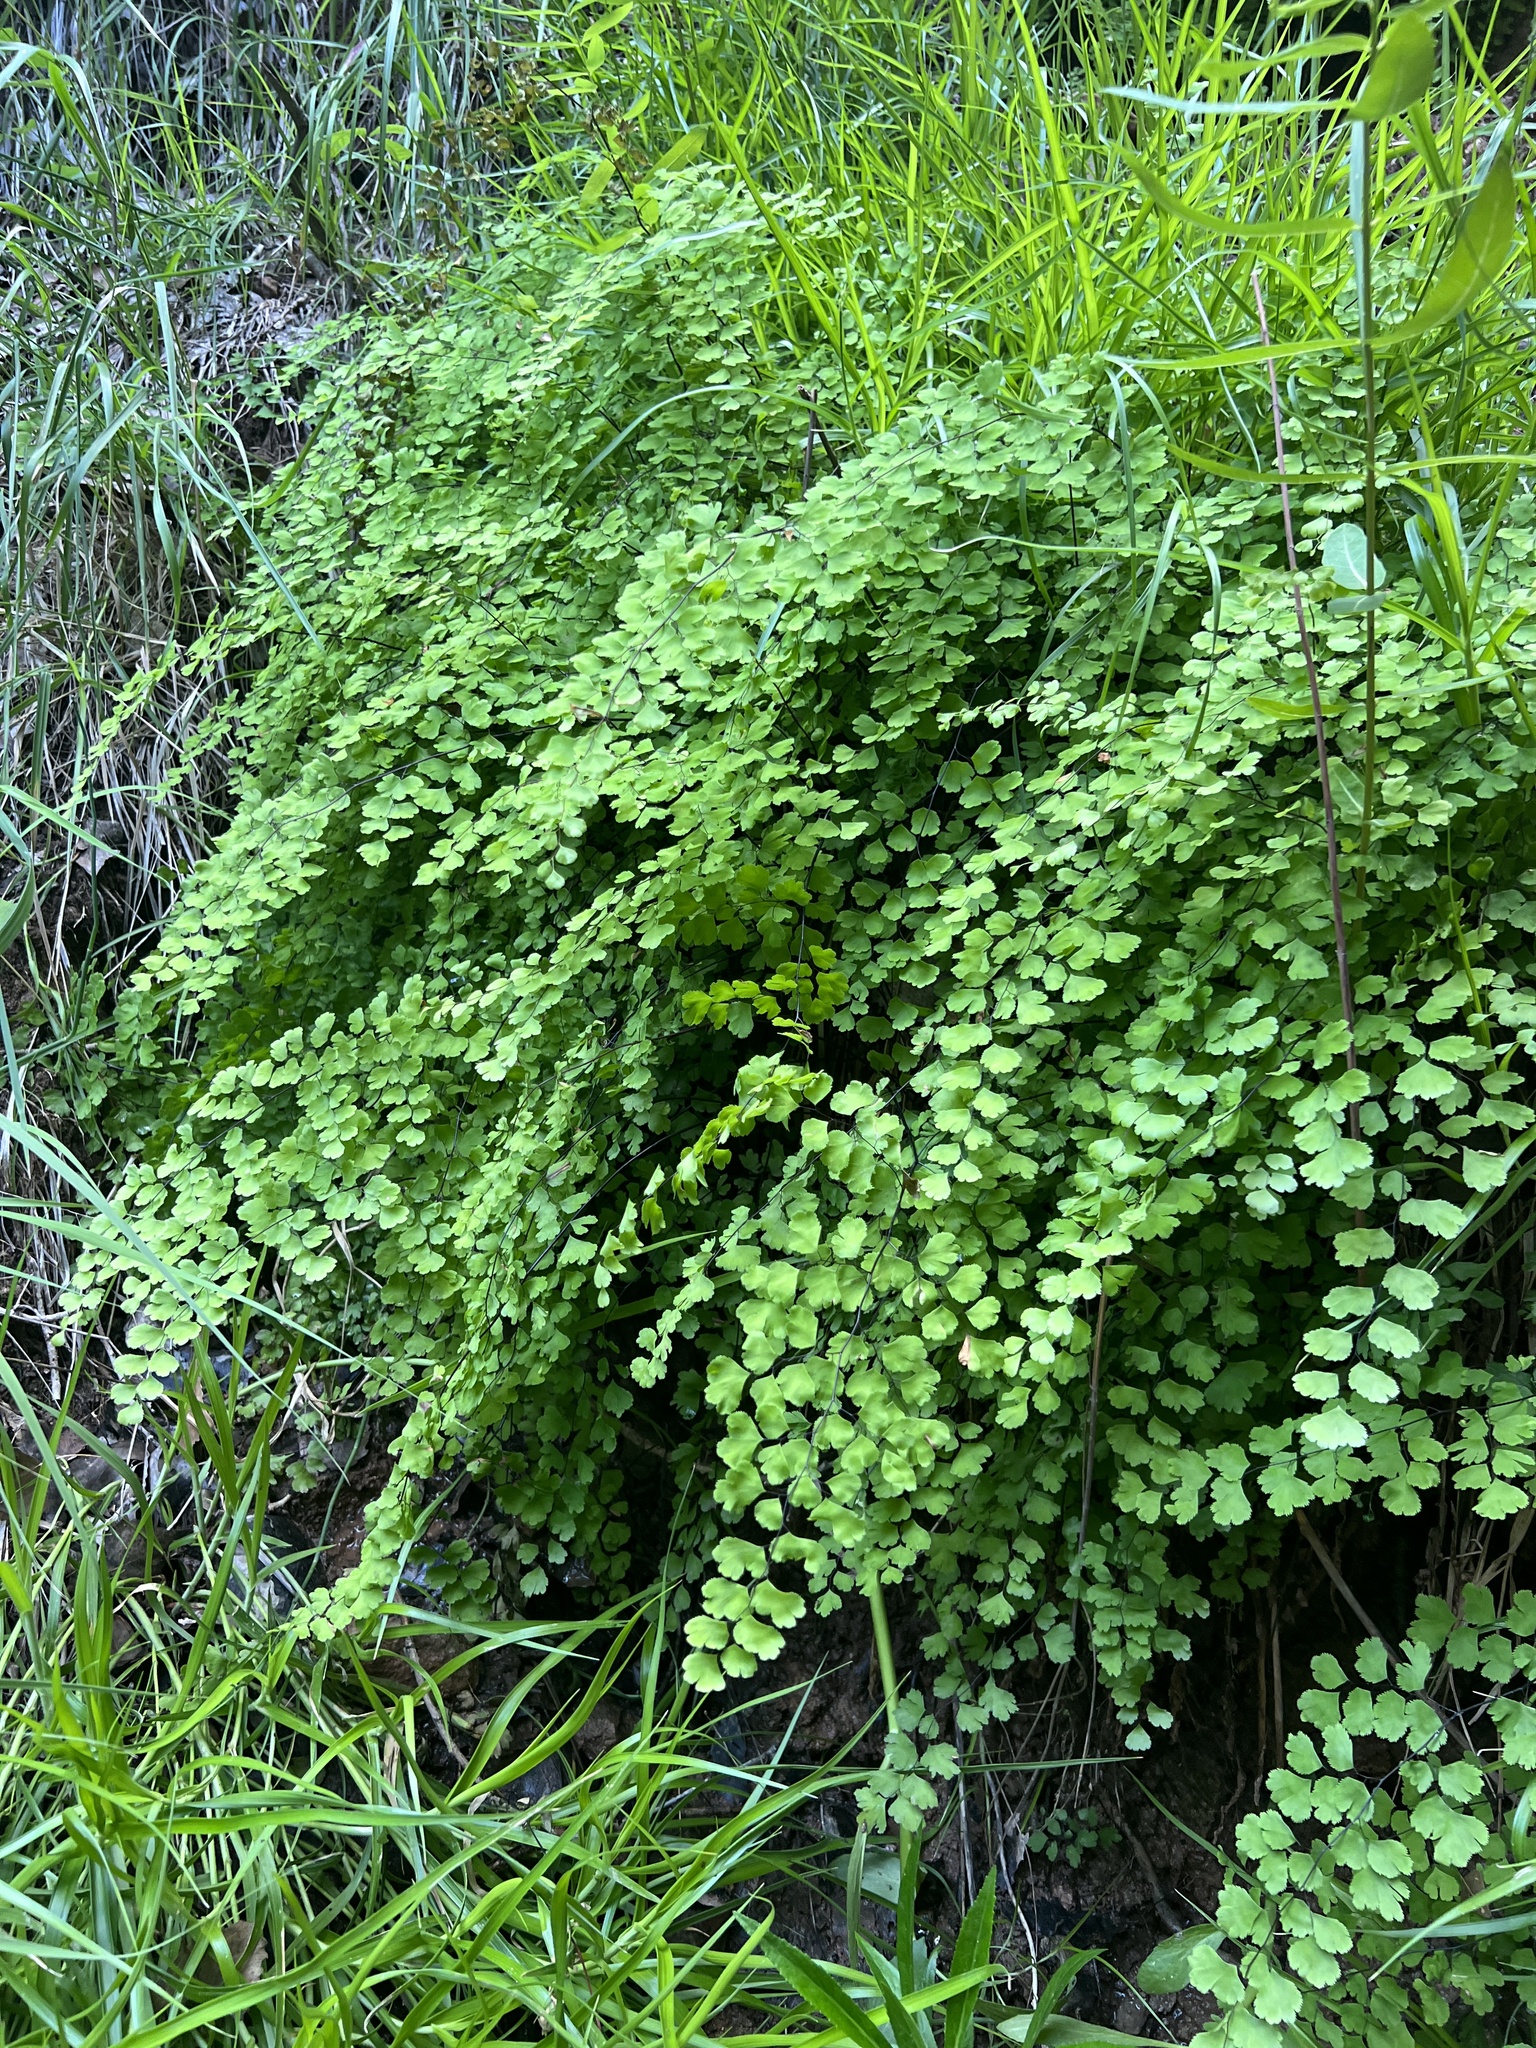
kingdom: Plantae
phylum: Tracheophyta
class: Polypodiopsida
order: Polypodiales
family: Pteridaceae
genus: Adiantum
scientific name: Adiantum capillus-veneris
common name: Maidenhair fern
